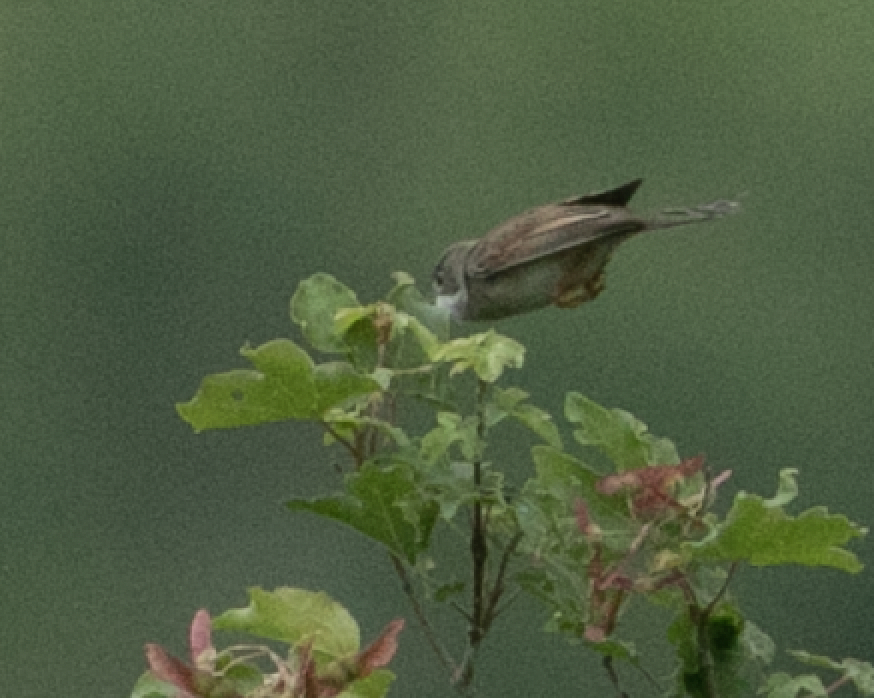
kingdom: Animalia
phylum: Chordata
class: Aves
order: Passeriformes
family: Sylviidae
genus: Sylvia
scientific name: Sylvia communis
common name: Common whitethroat
